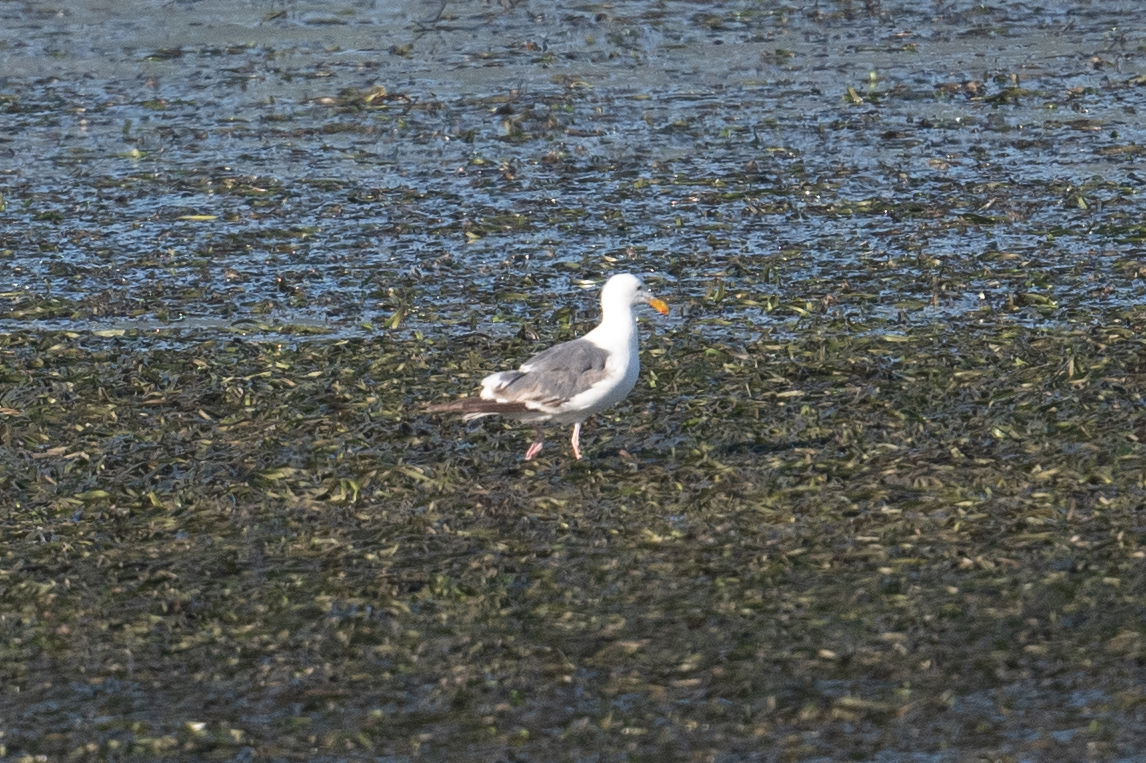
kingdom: Animalia
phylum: Chordata
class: Aves
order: Charadriiformes
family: Laridae
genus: Larus
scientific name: Larus occidentalis
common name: Western gull
